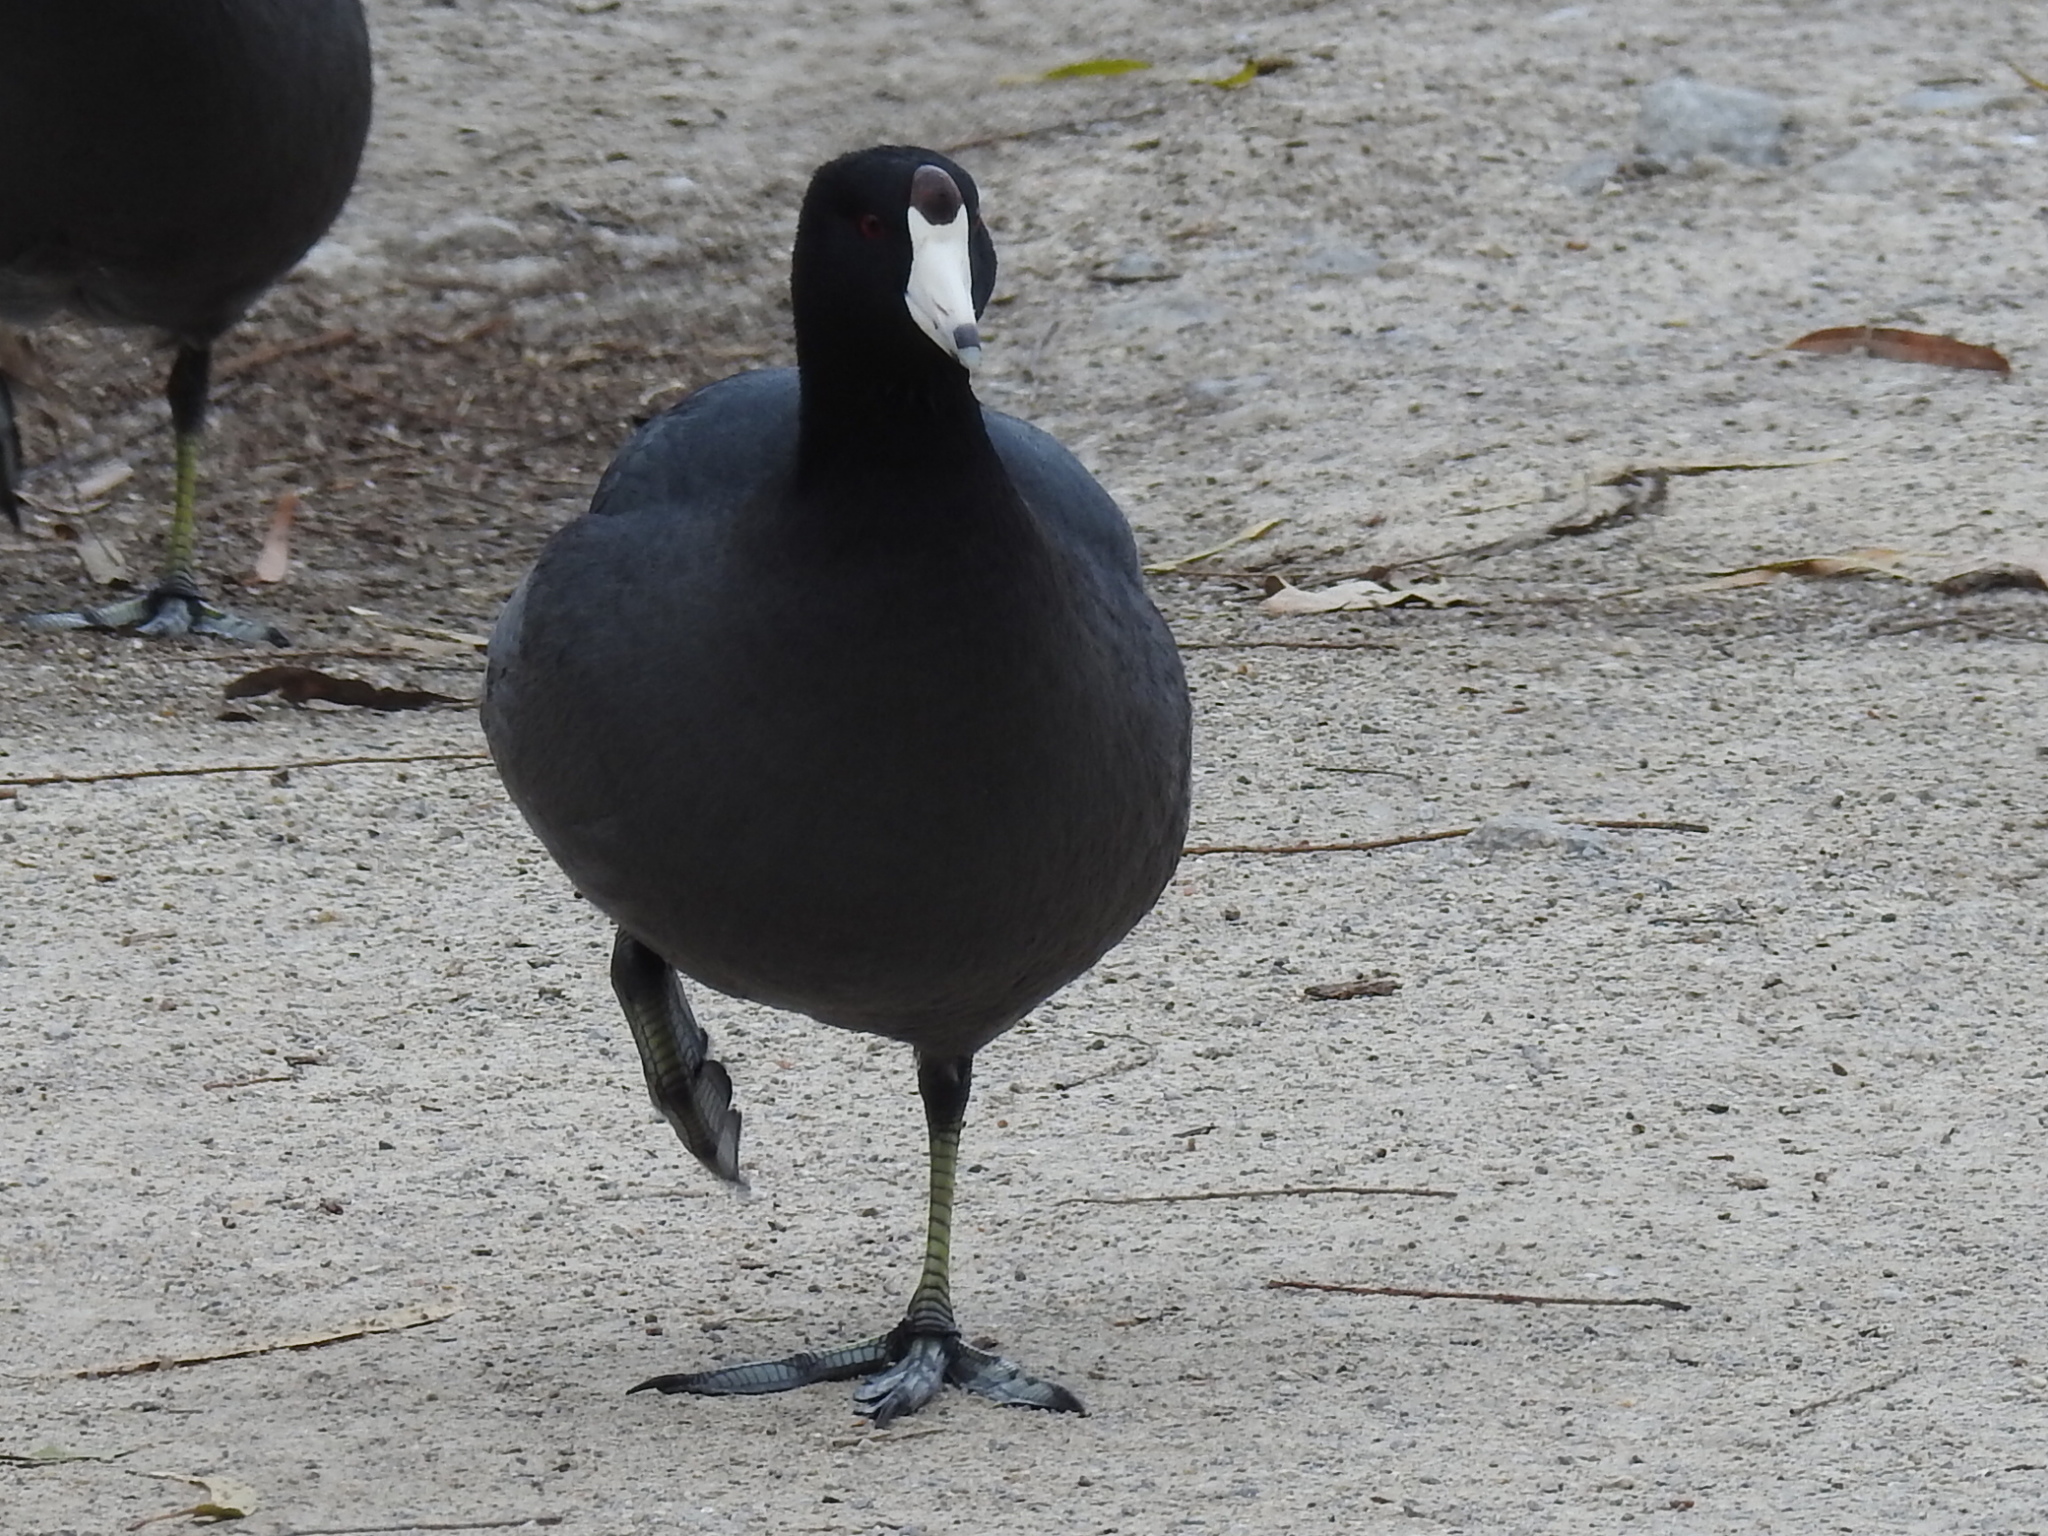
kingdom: Animalia
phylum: Chordata
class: Aves
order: Gruiformes
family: Rallidae
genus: Fulica
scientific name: Fulica americana
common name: American coot
